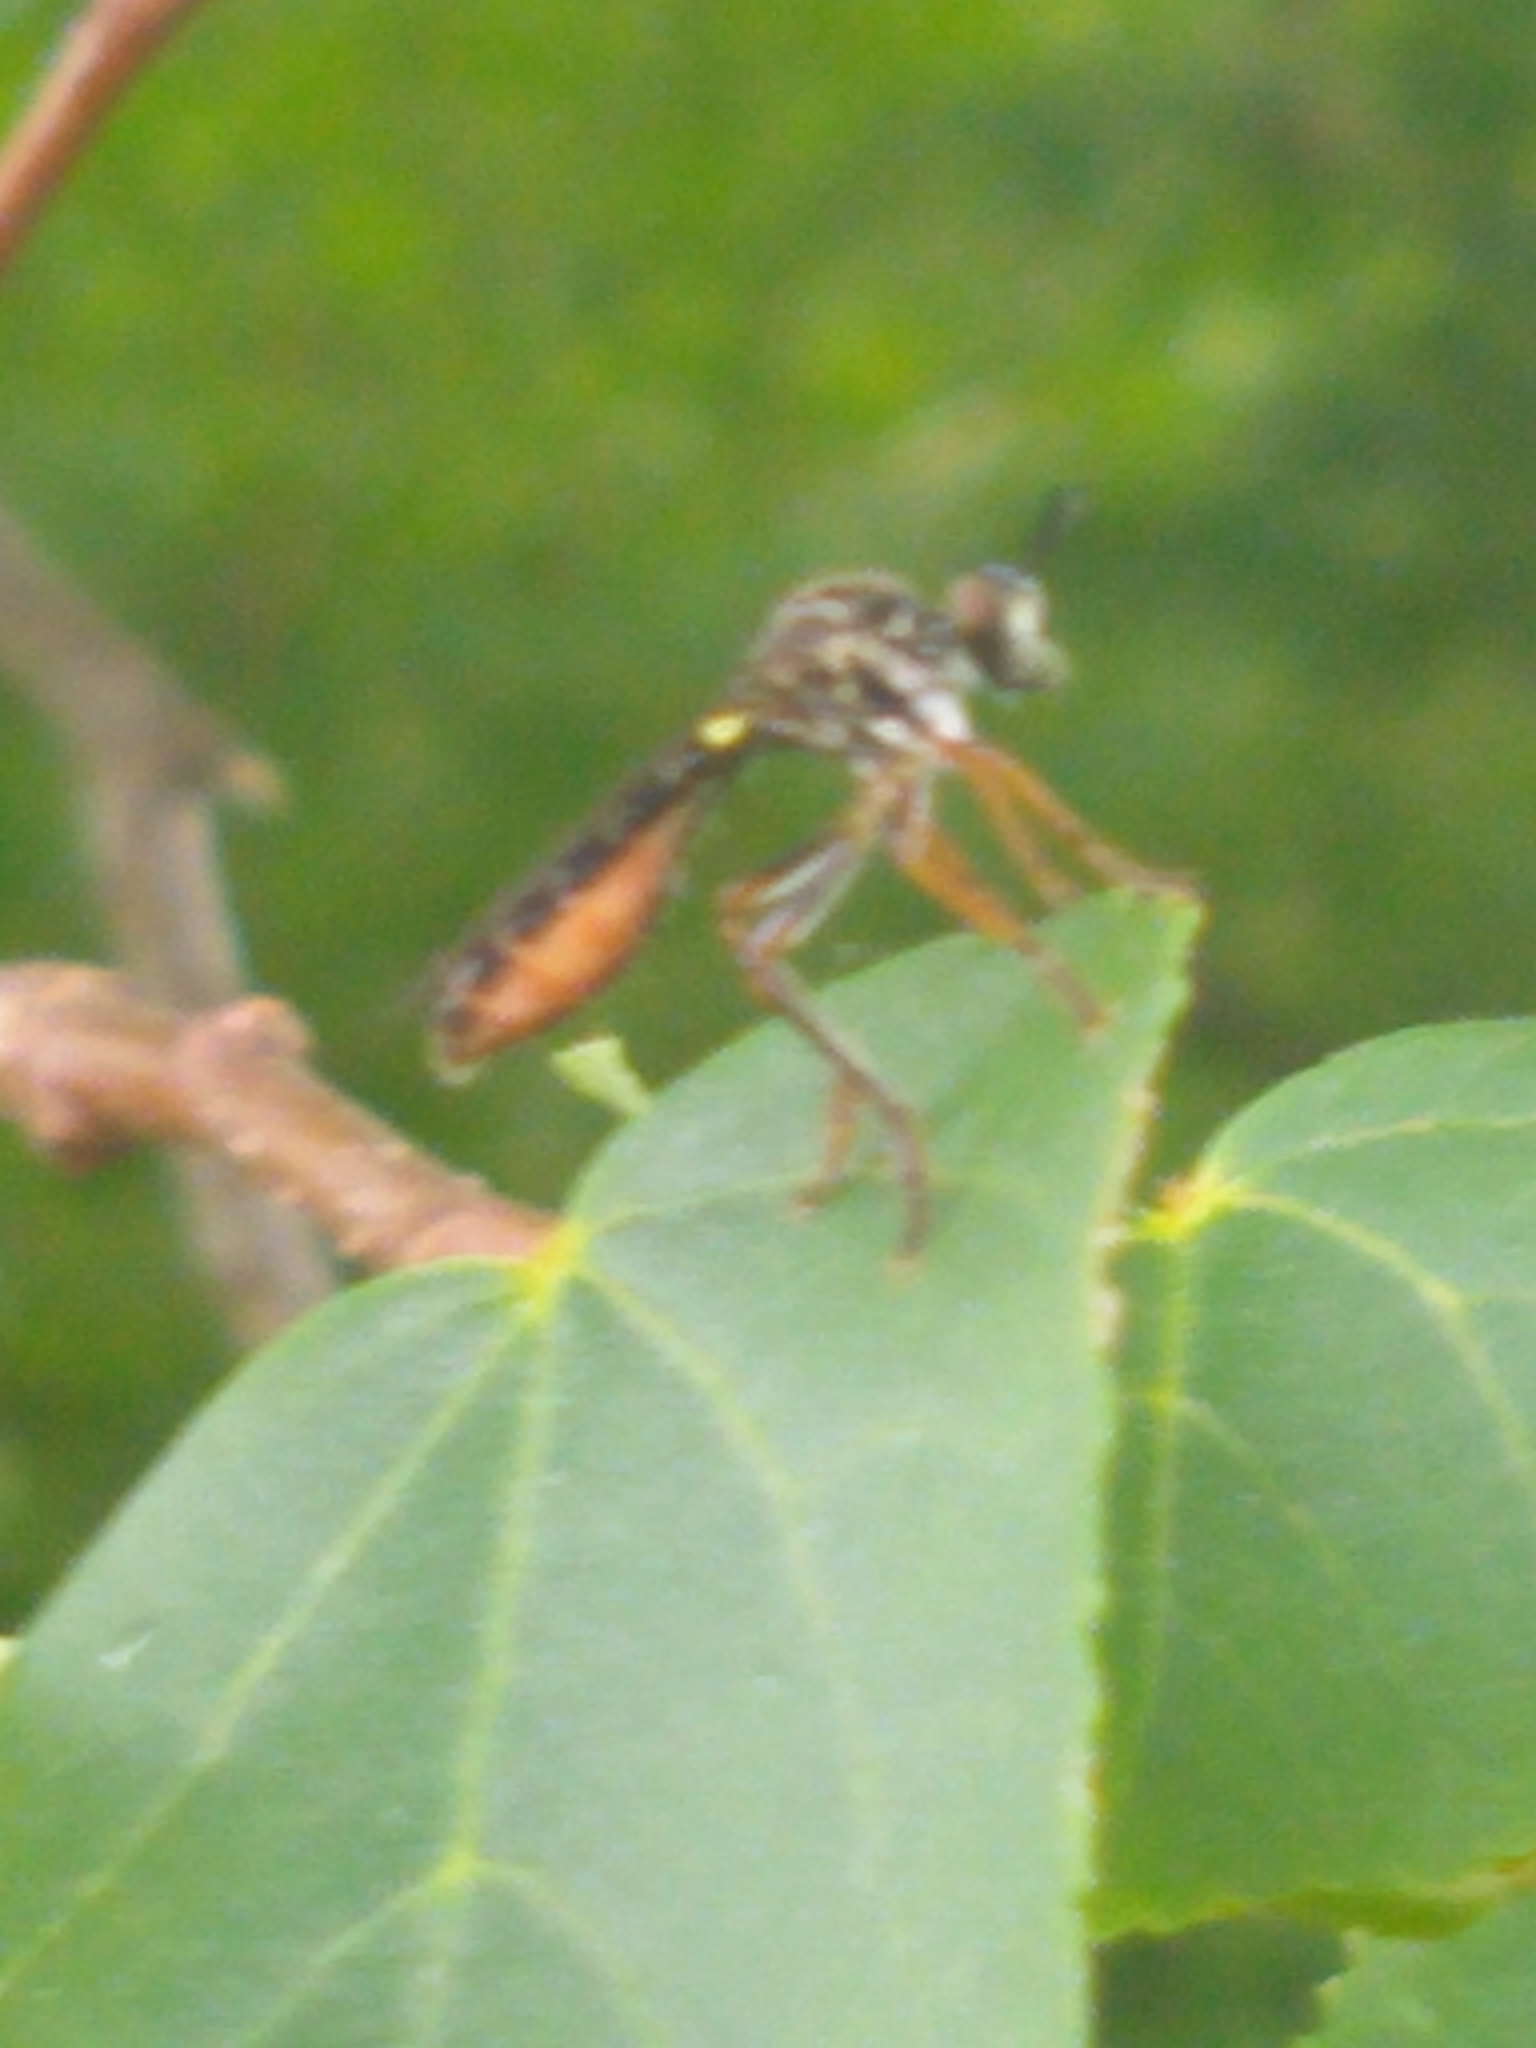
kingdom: Animalia
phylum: Arthropoda
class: Insecta
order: Diptera
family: Asilidae
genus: Dioctria
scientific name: Dioctria hyalipennis
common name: Stripe-legged robberfly
